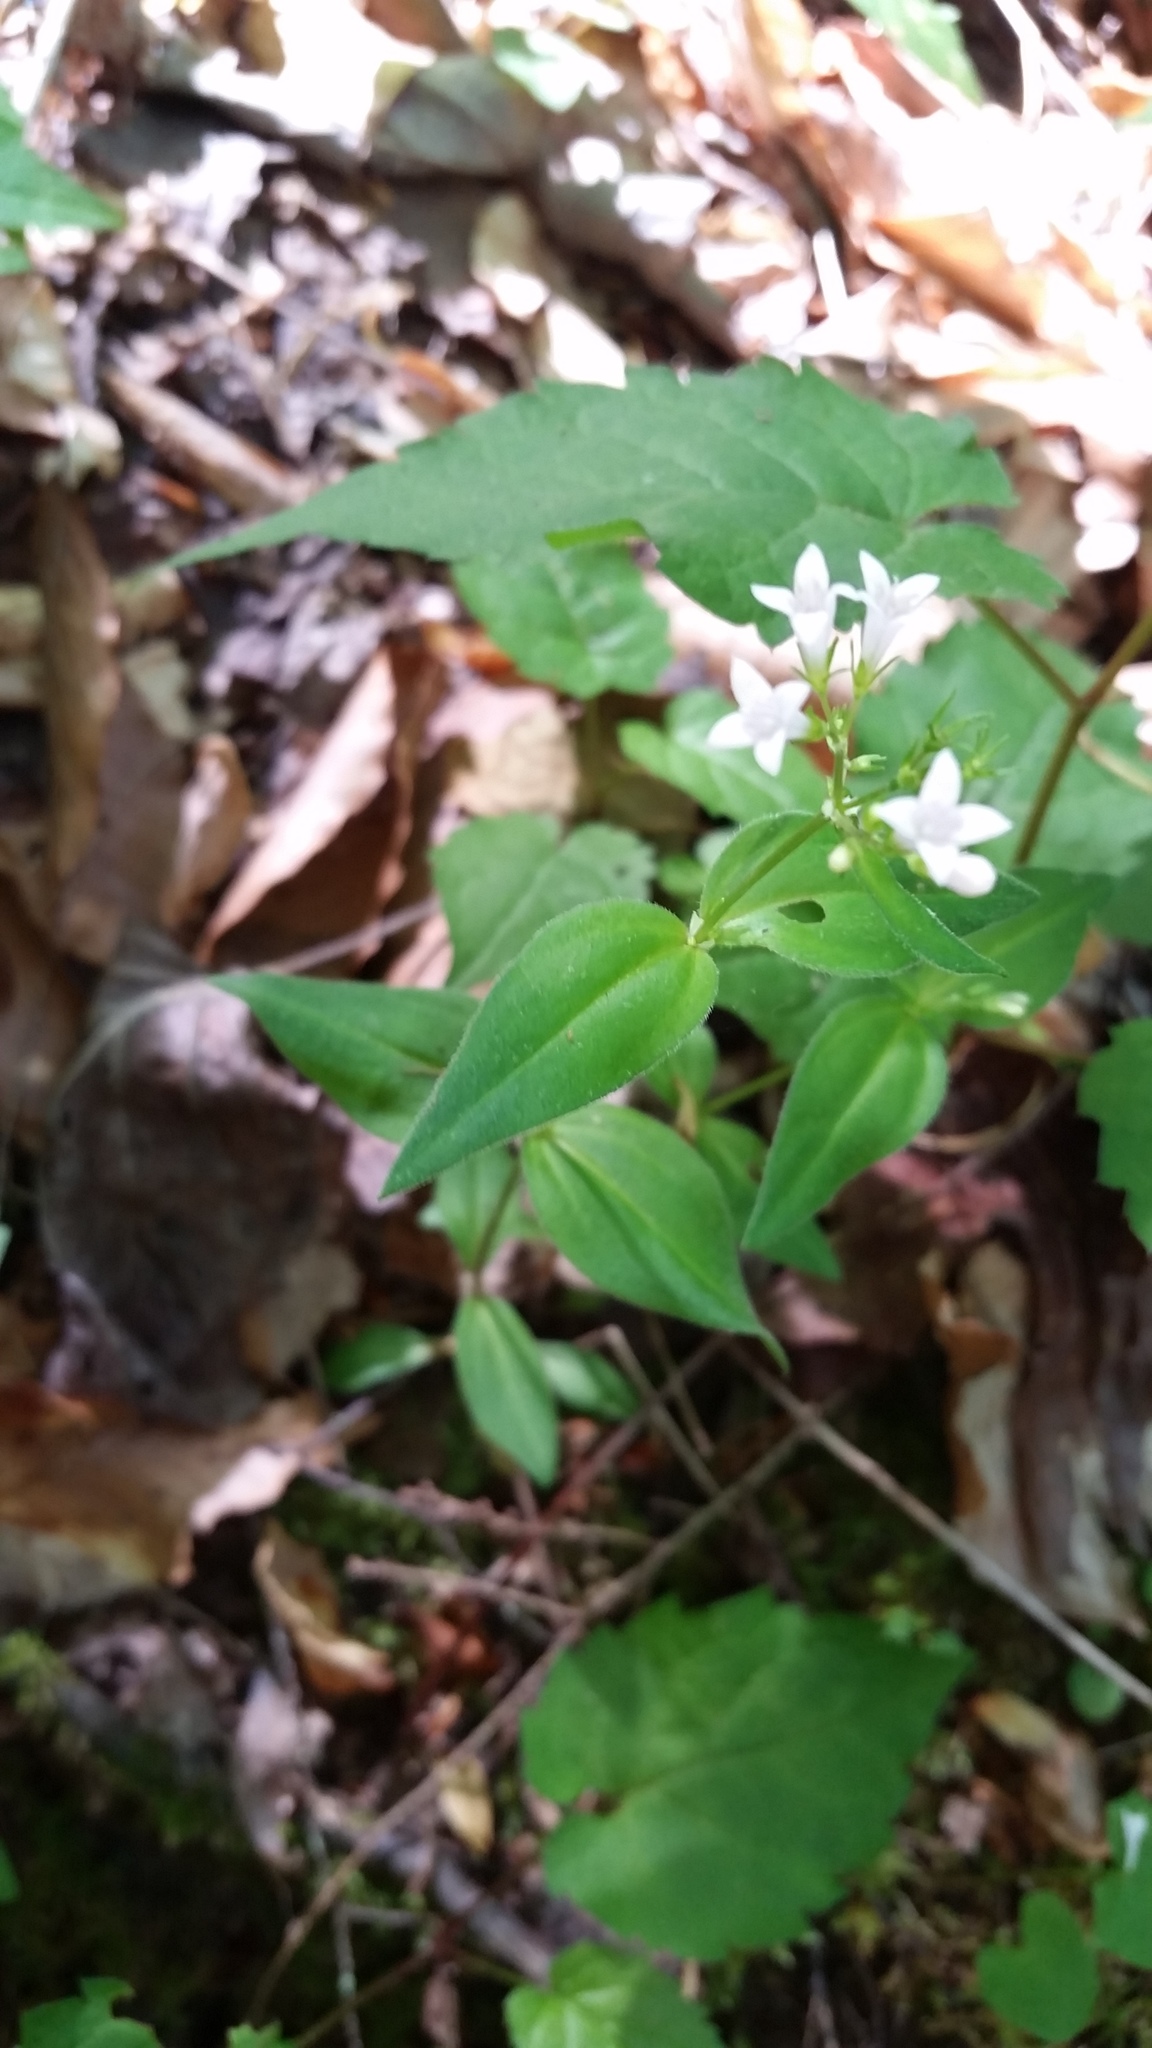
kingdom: Plantae
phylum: Tracheophyta
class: Magnoliopsida
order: Gentianales
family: Rubiaceae
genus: Houstonia
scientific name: Houstonia purpurea
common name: Summer bluet
